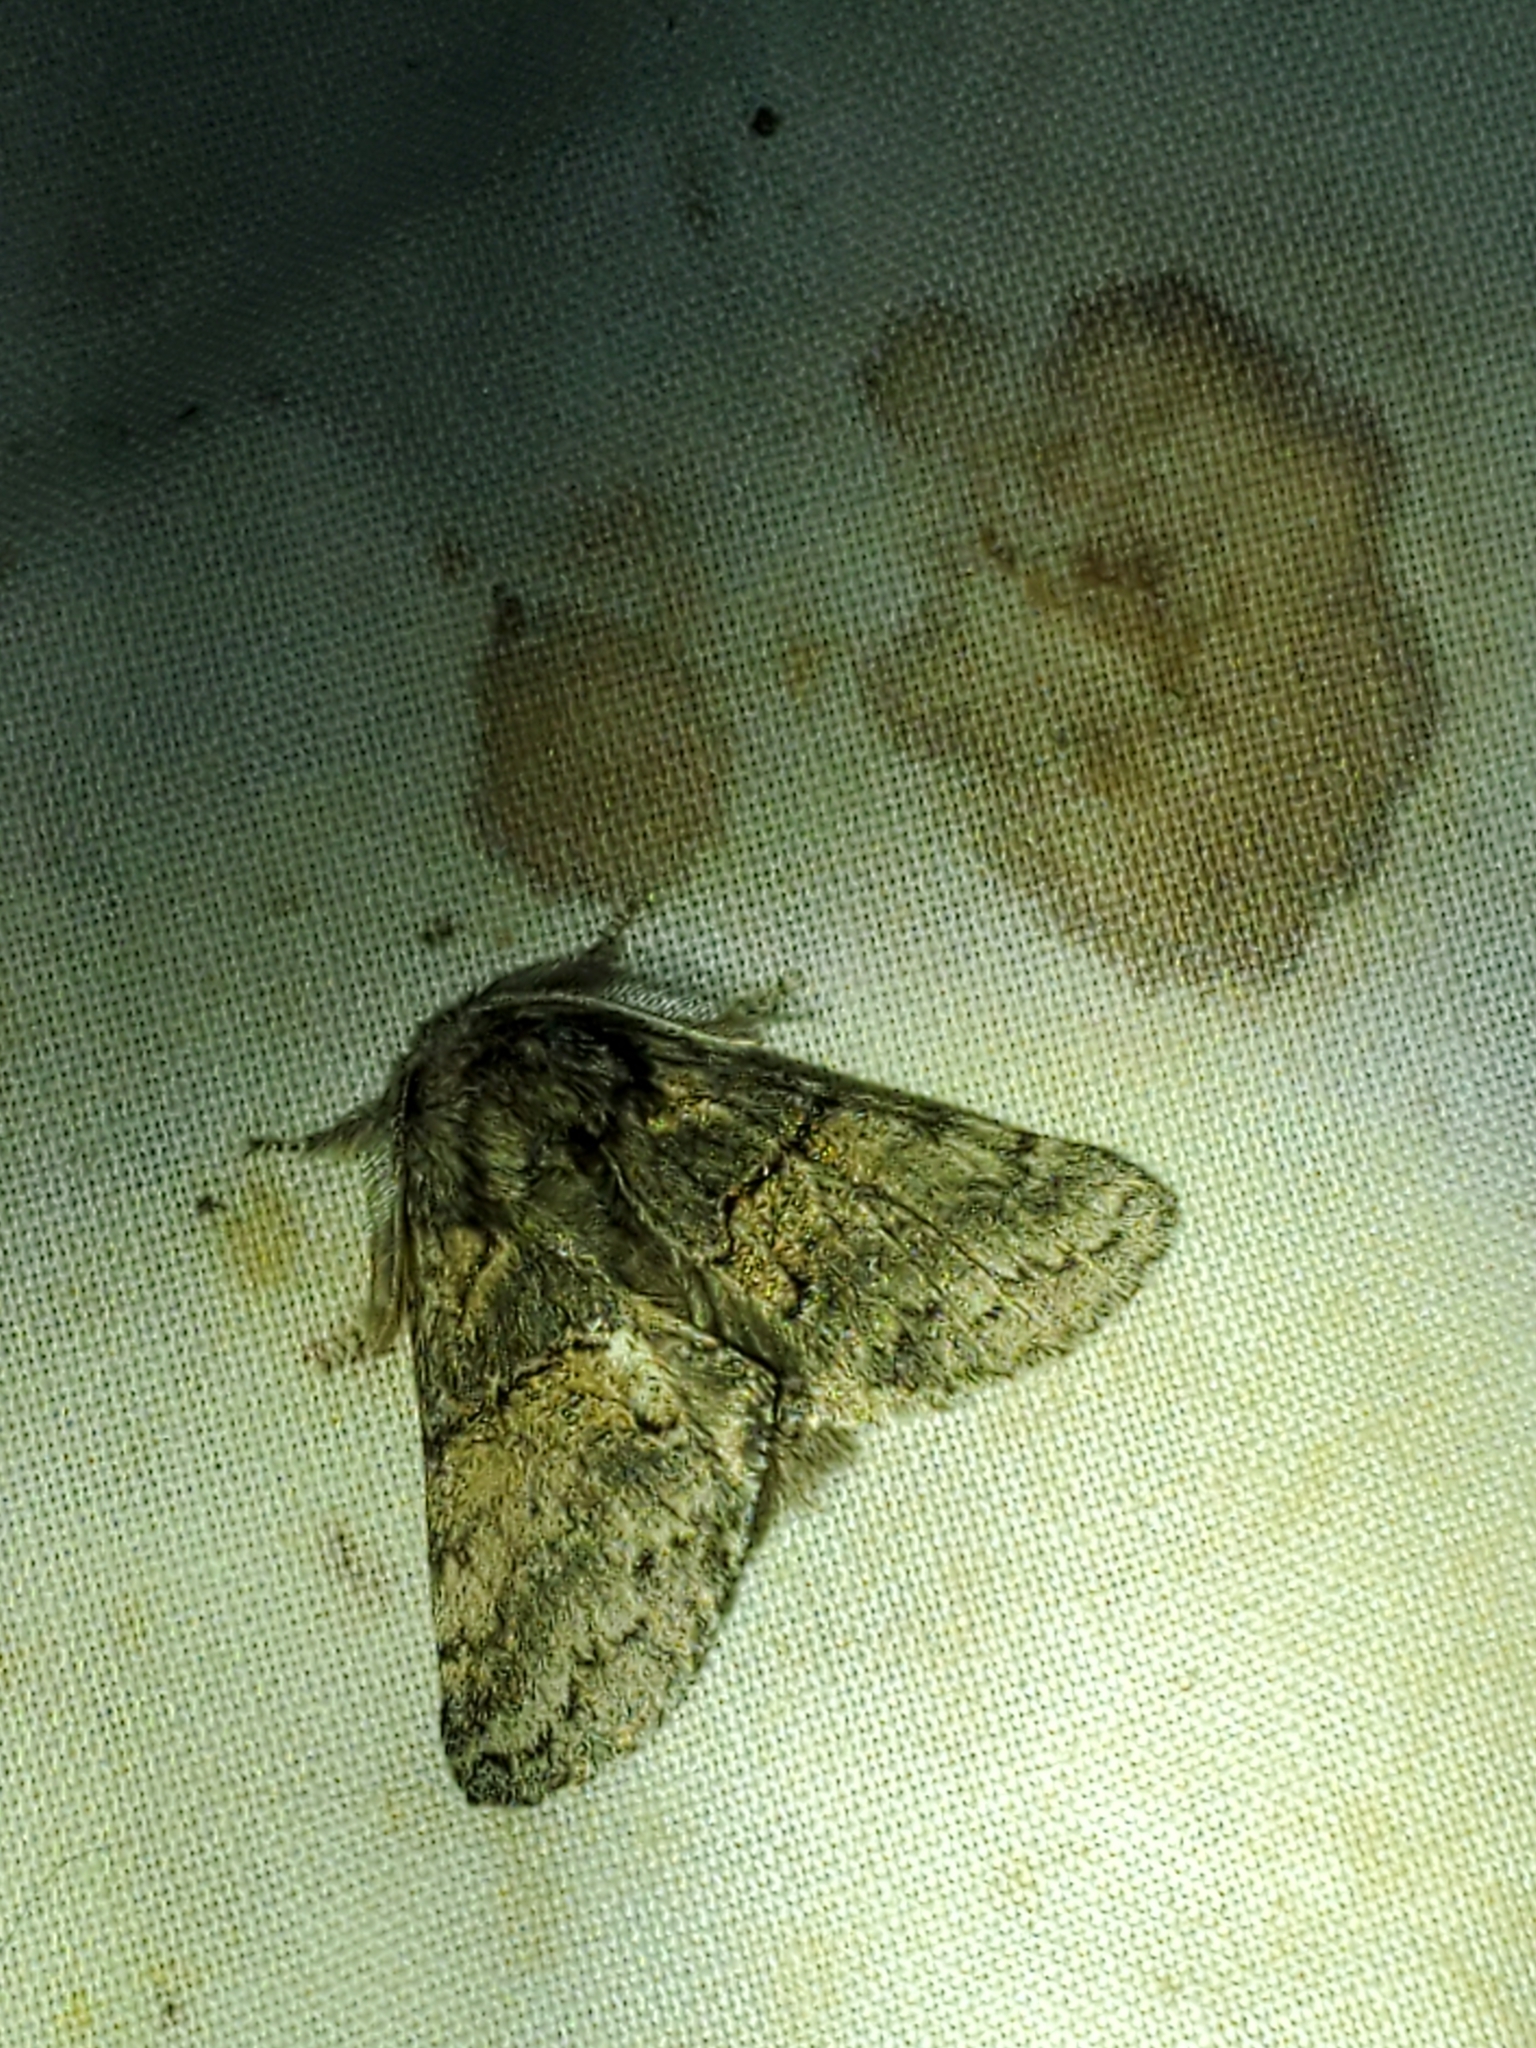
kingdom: Animalia
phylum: Arthropoda
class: Insecta
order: Lepidoptera
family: Notodontidae
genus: Gluphisia
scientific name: Gluphisia septentrionis
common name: Common gluphisia
